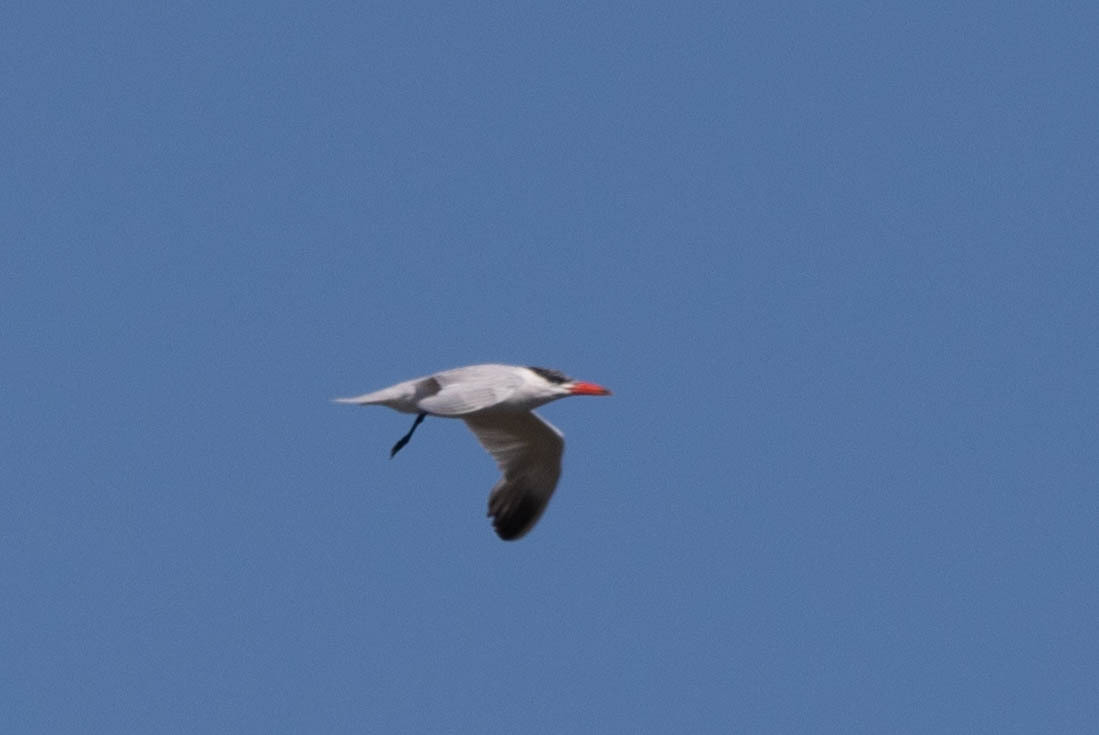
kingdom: Animalia
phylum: Chordata
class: Aves
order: Charadriiformes
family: Laridae
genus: Hydroprogne
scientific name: Hydroprogne caspia
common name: Caspian tern
